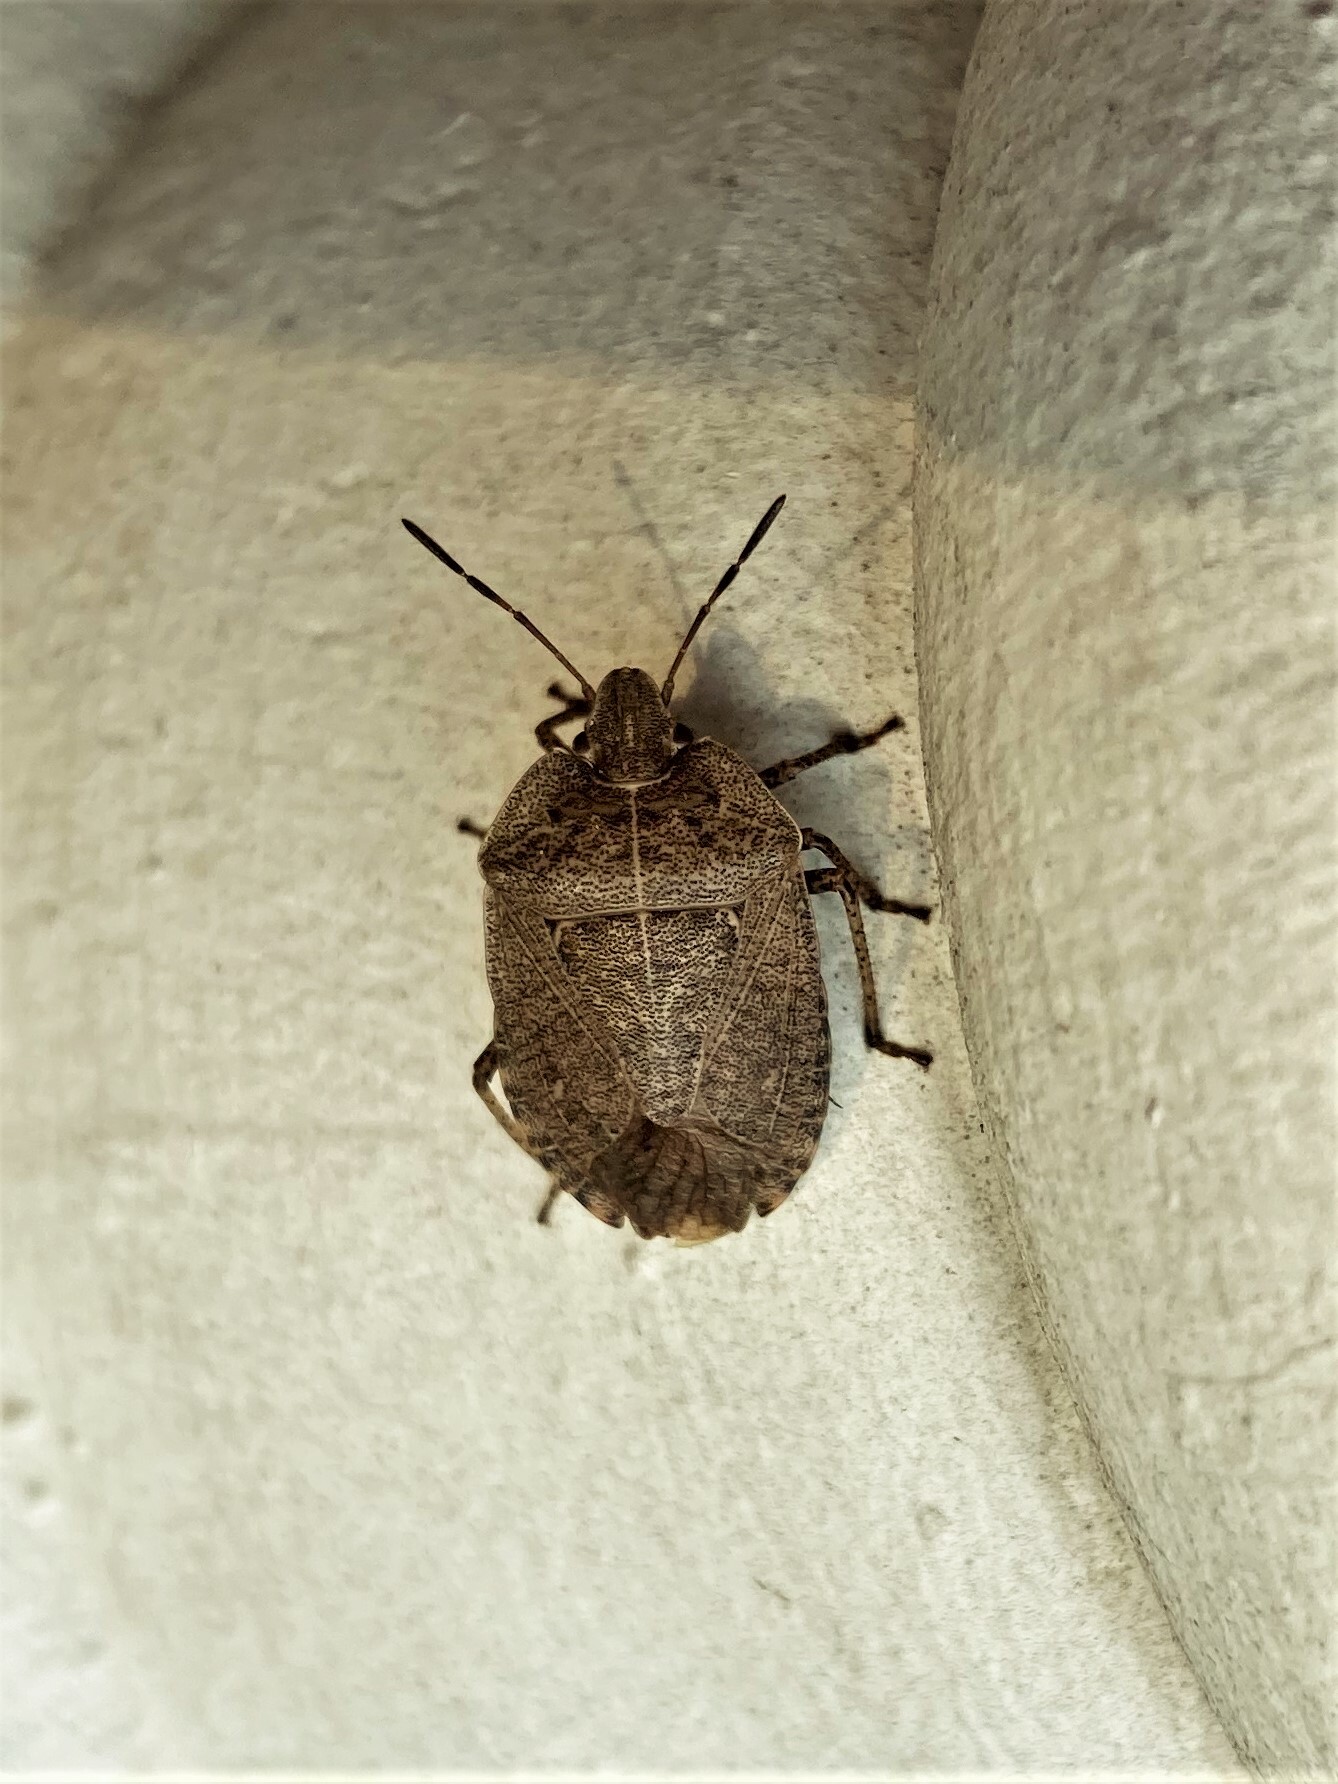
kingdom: Animalia
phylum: Arthropoda
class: Insecta
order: Hemiptera
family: Pentatomidae
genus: Menecles
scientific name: Menecles insertus
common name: Elf shoe stink bug
